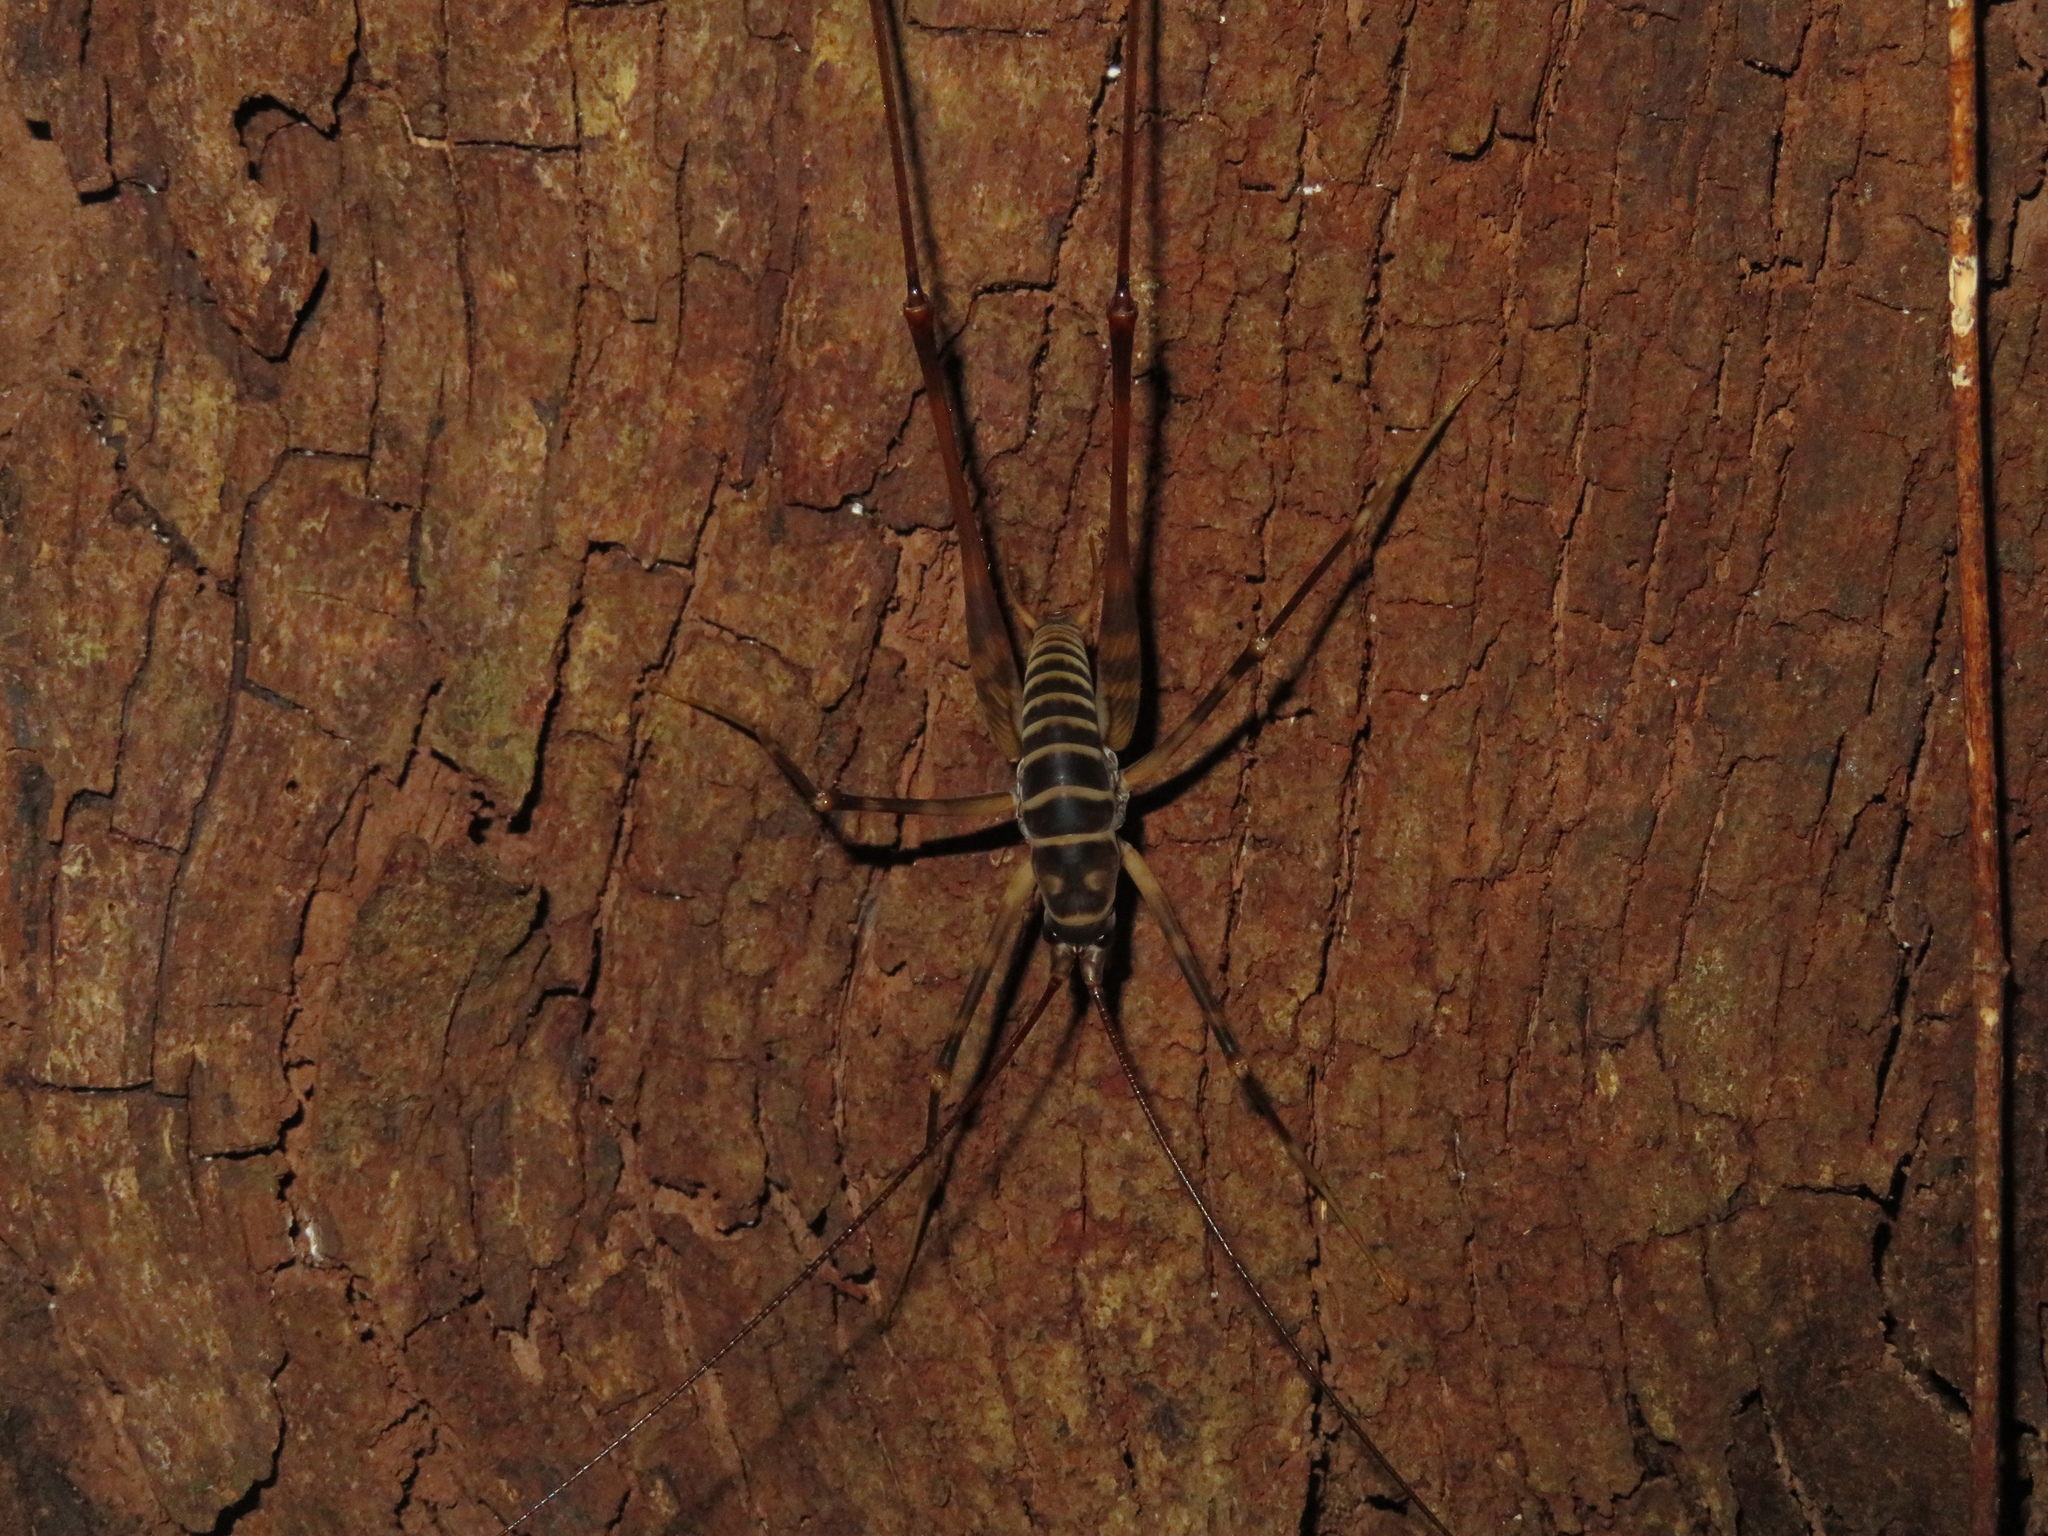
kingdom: Animalia
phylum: Arthropoda
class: Insecta
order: Orthoptera
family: Rhaphidophoridae
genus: Pachyrhamma
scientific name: Pachyrhamma acanthocera
